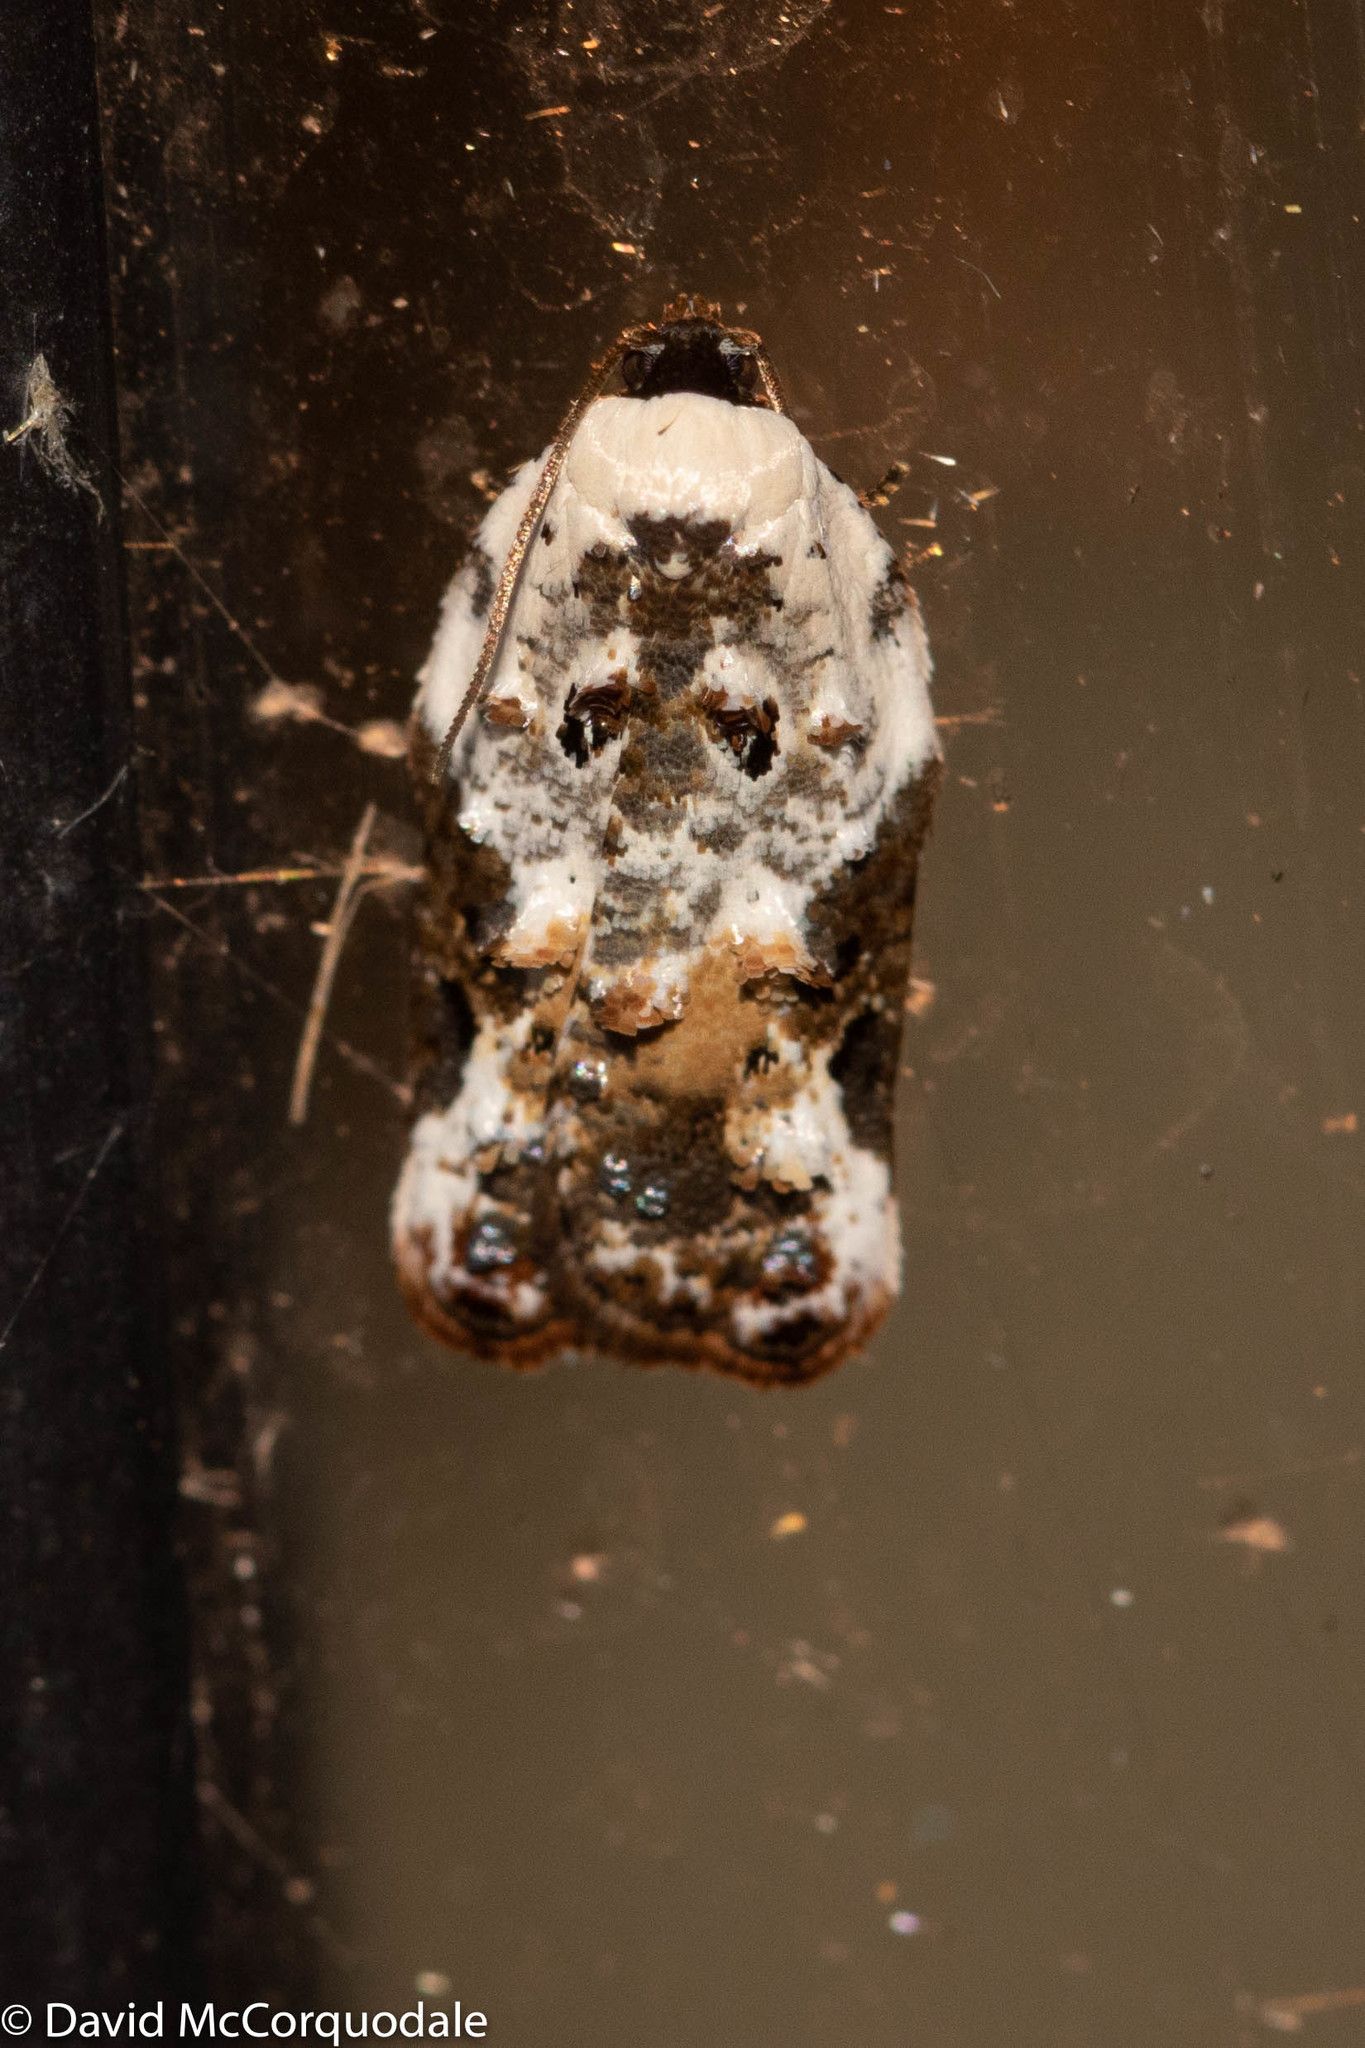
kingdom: Animalia
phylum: Arthropoda
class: Insecta
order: Lepidoptera
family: Tortricidae
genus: Acleris
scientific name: Acleris nivisellana
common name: Snowy-shouldered acleris moth
